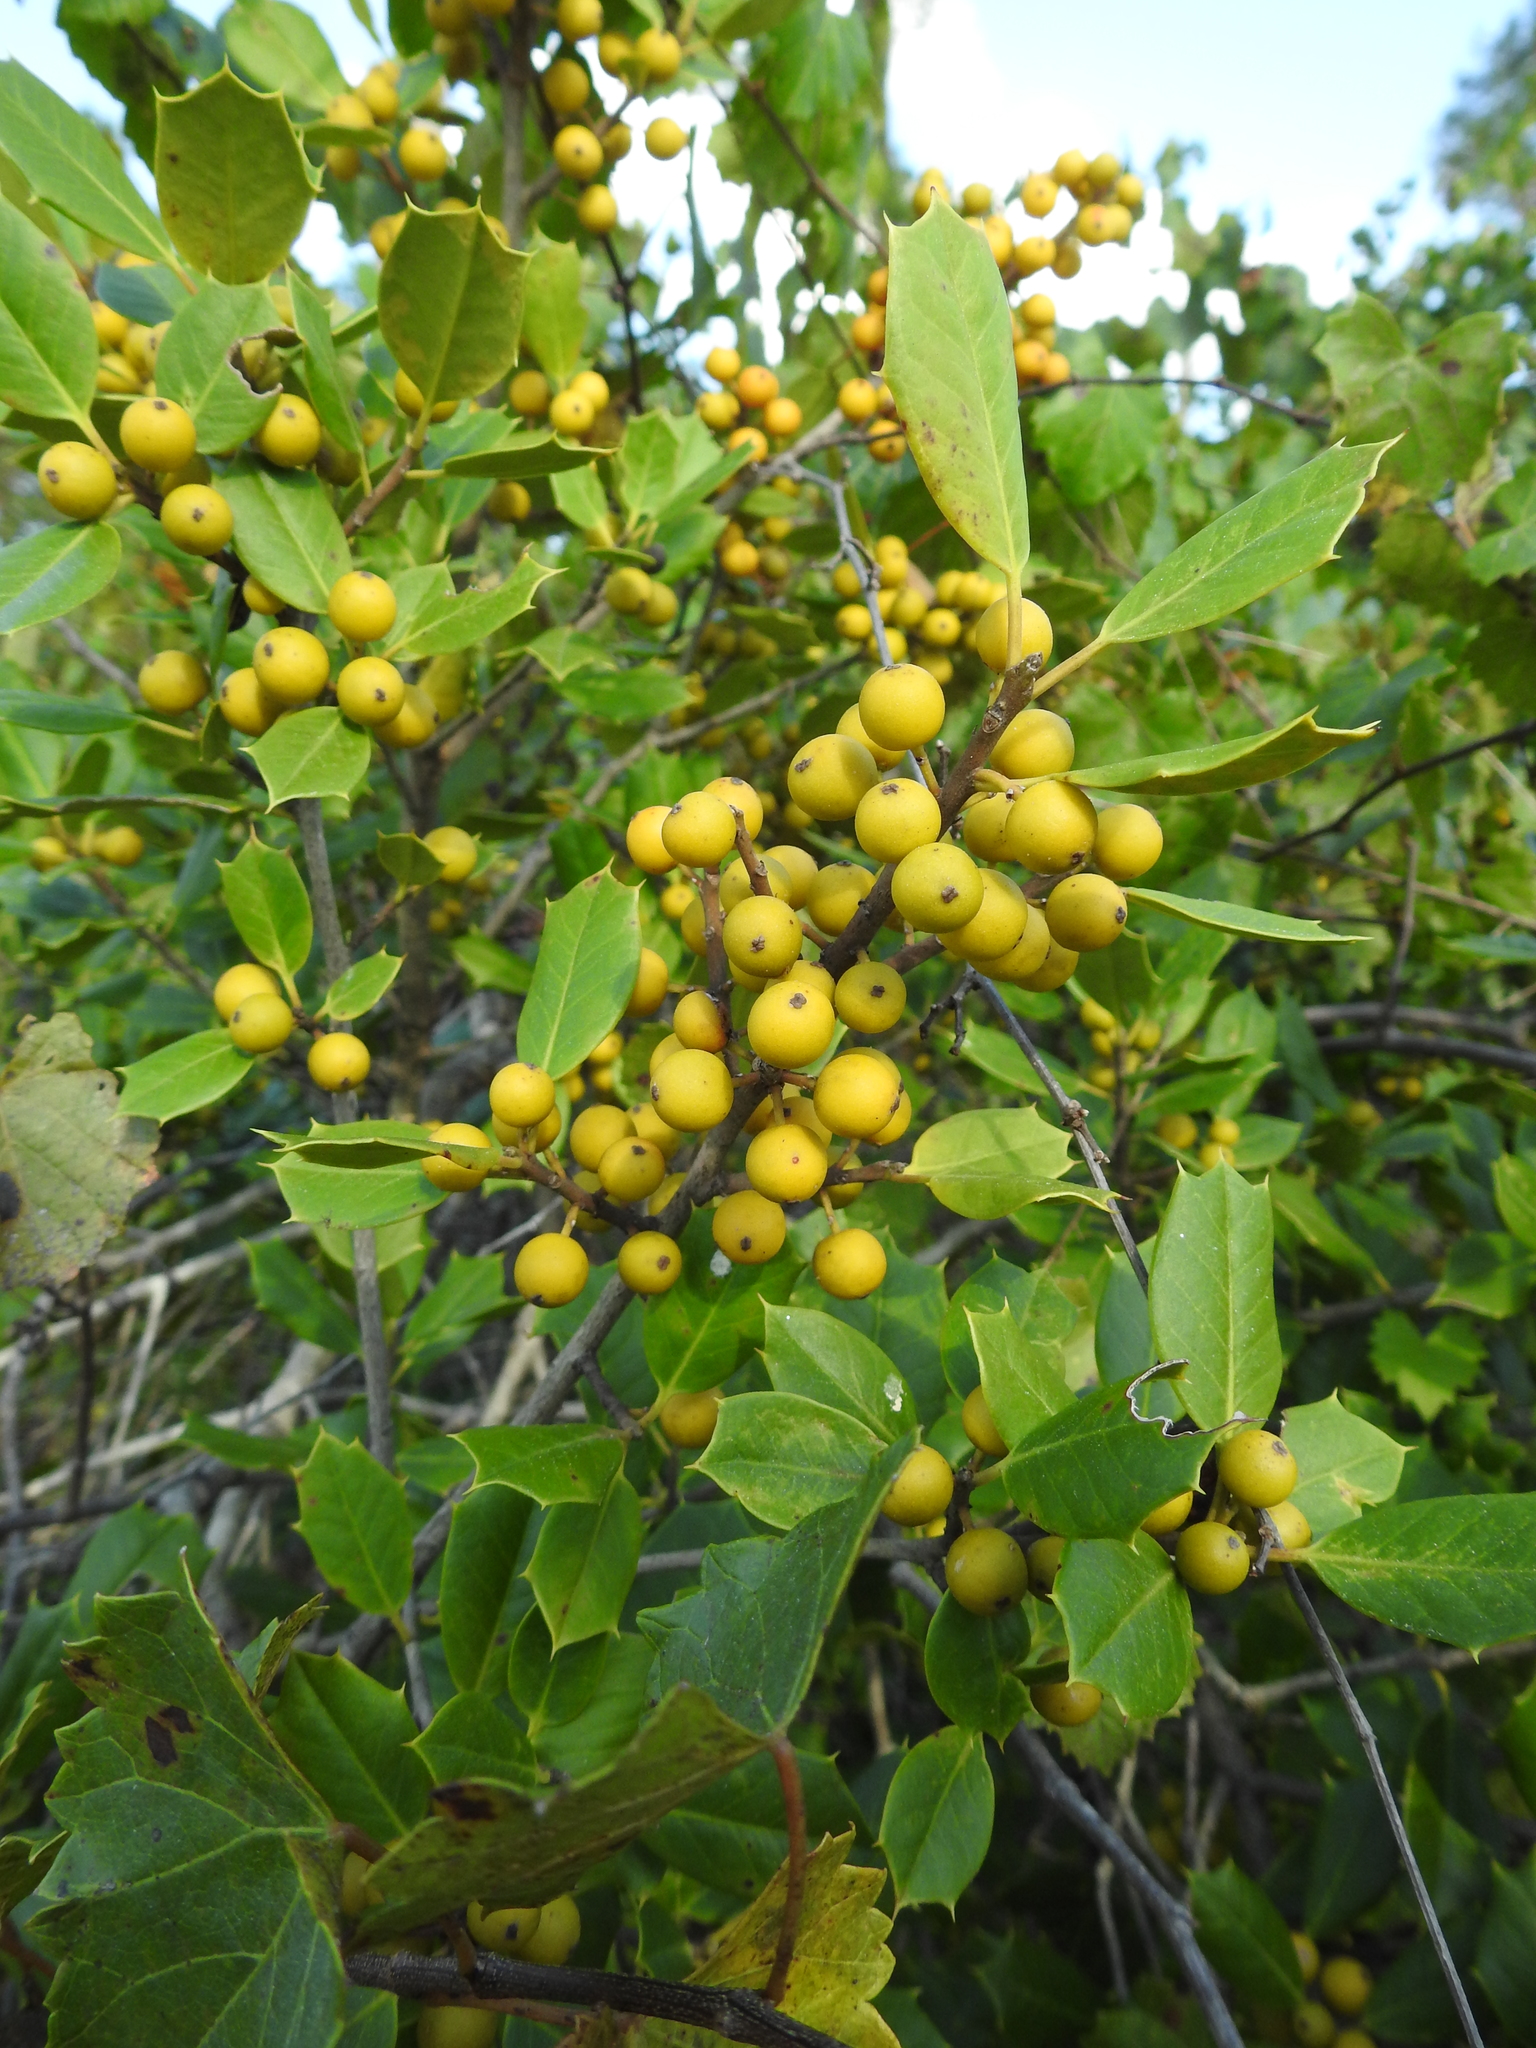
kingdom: Plantae
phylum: Tracheophyta
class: Magnoliopsida
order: Aquifoliales
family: Aquifoliaceae
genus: Ilex
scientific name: Ilex opaca
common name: American holly
